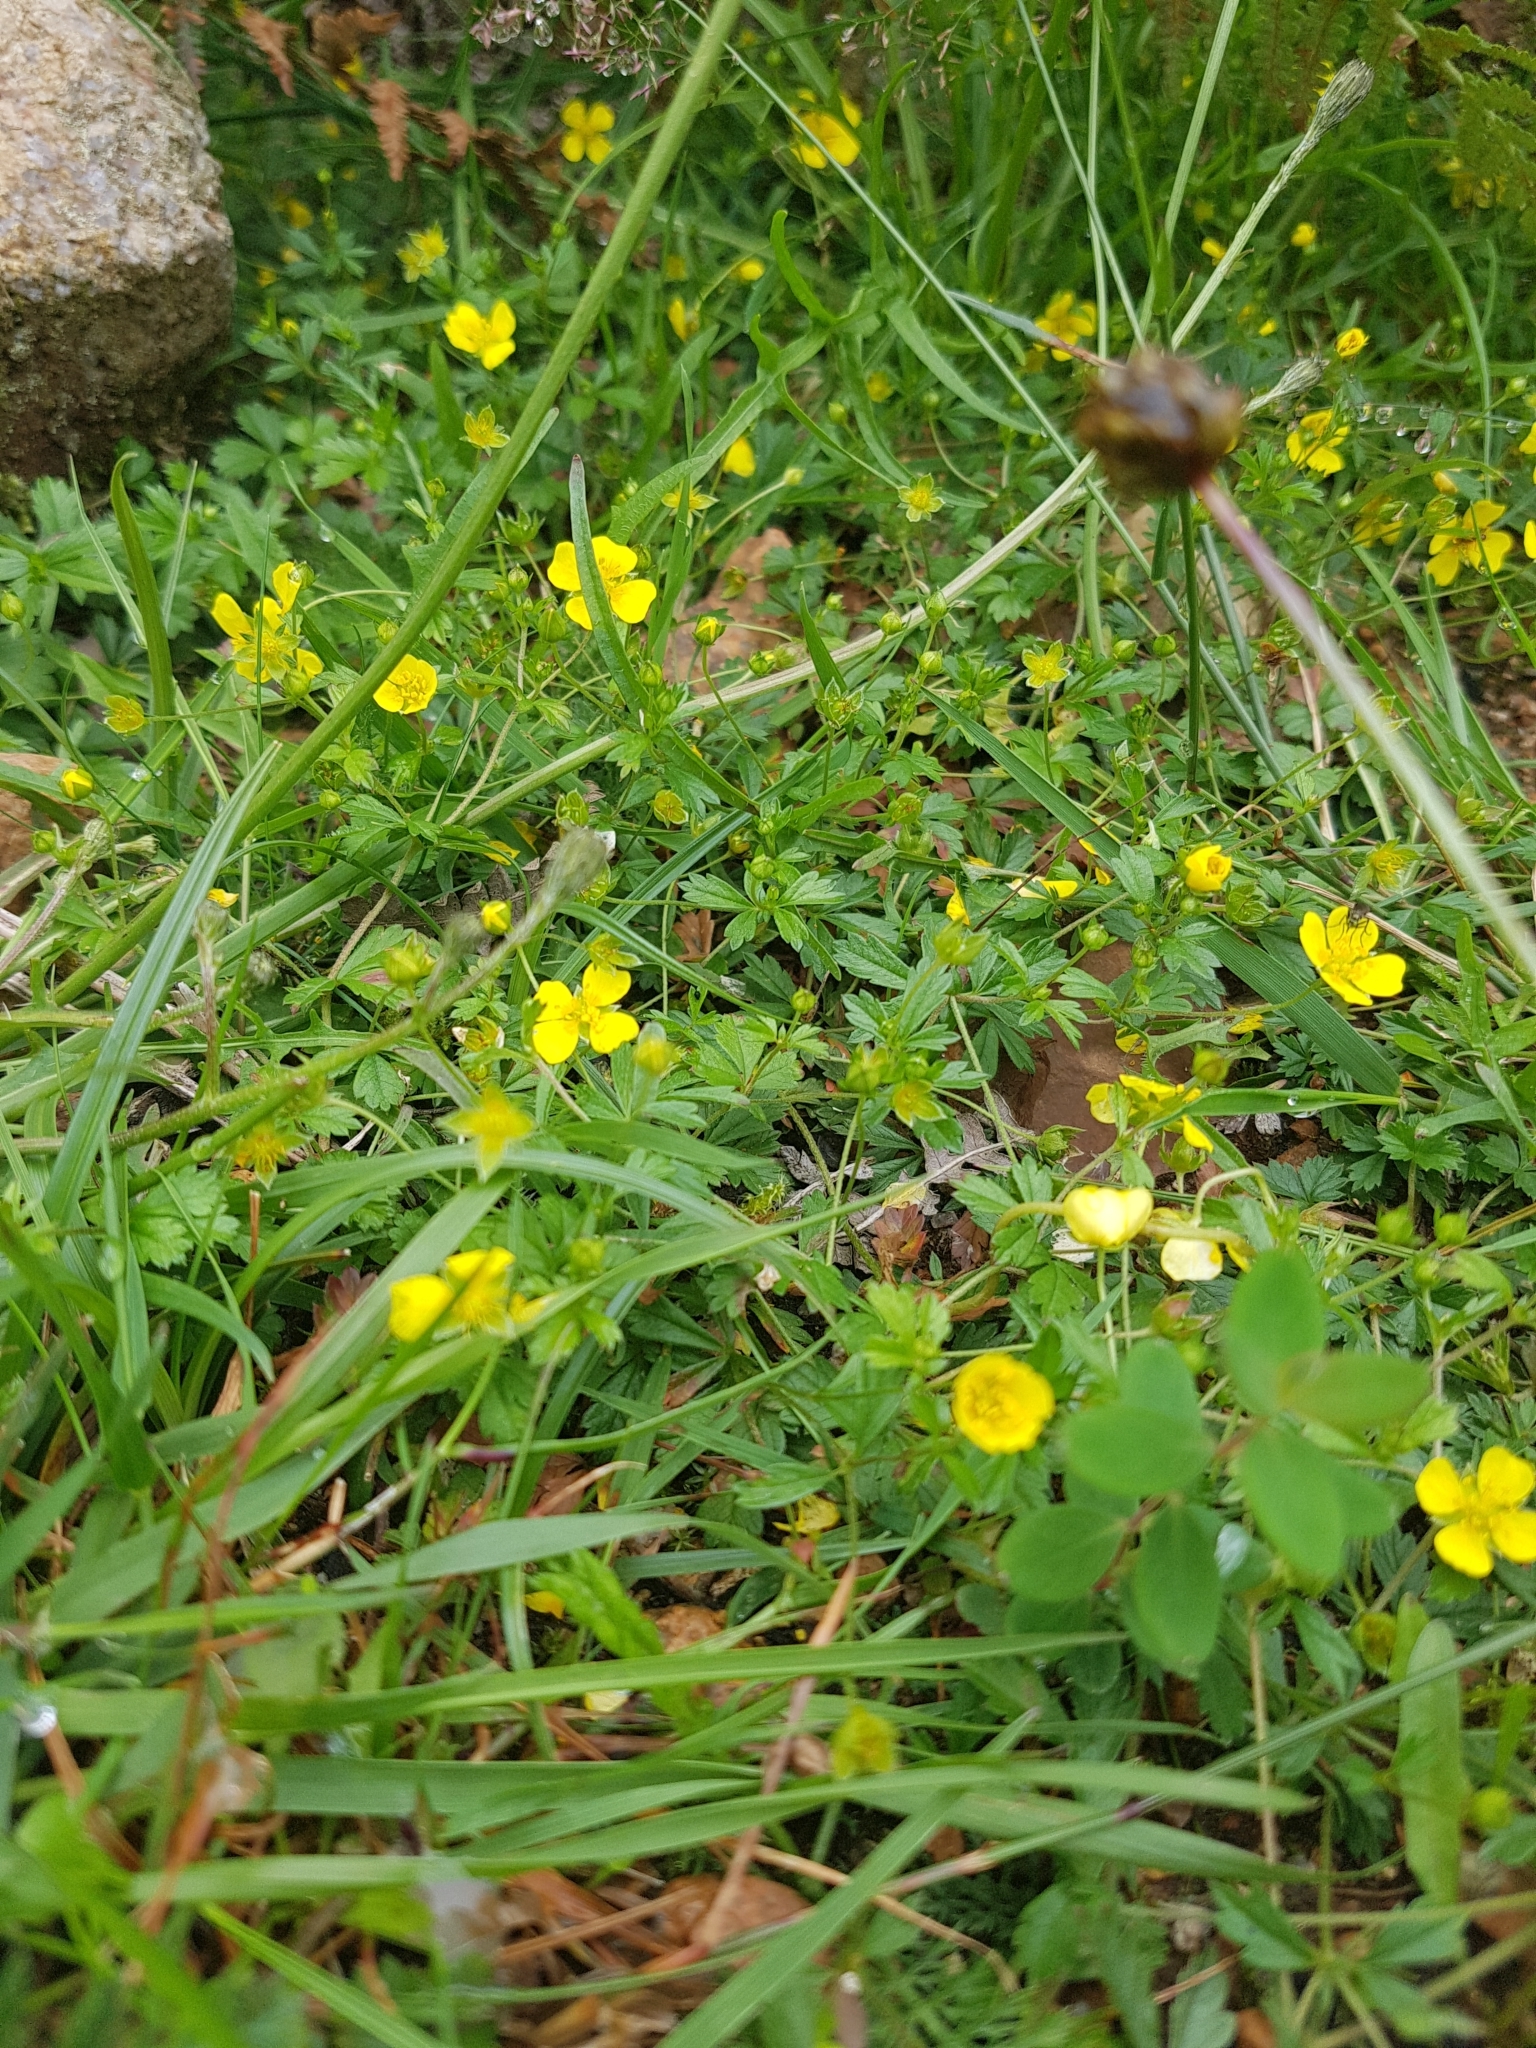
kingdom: Plantae
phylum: Tracheophyta
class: Magnoliopsida
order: Rosales
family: Rosaceae
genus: Potentilla
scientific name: Potentilla erecta
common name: Tormentil
